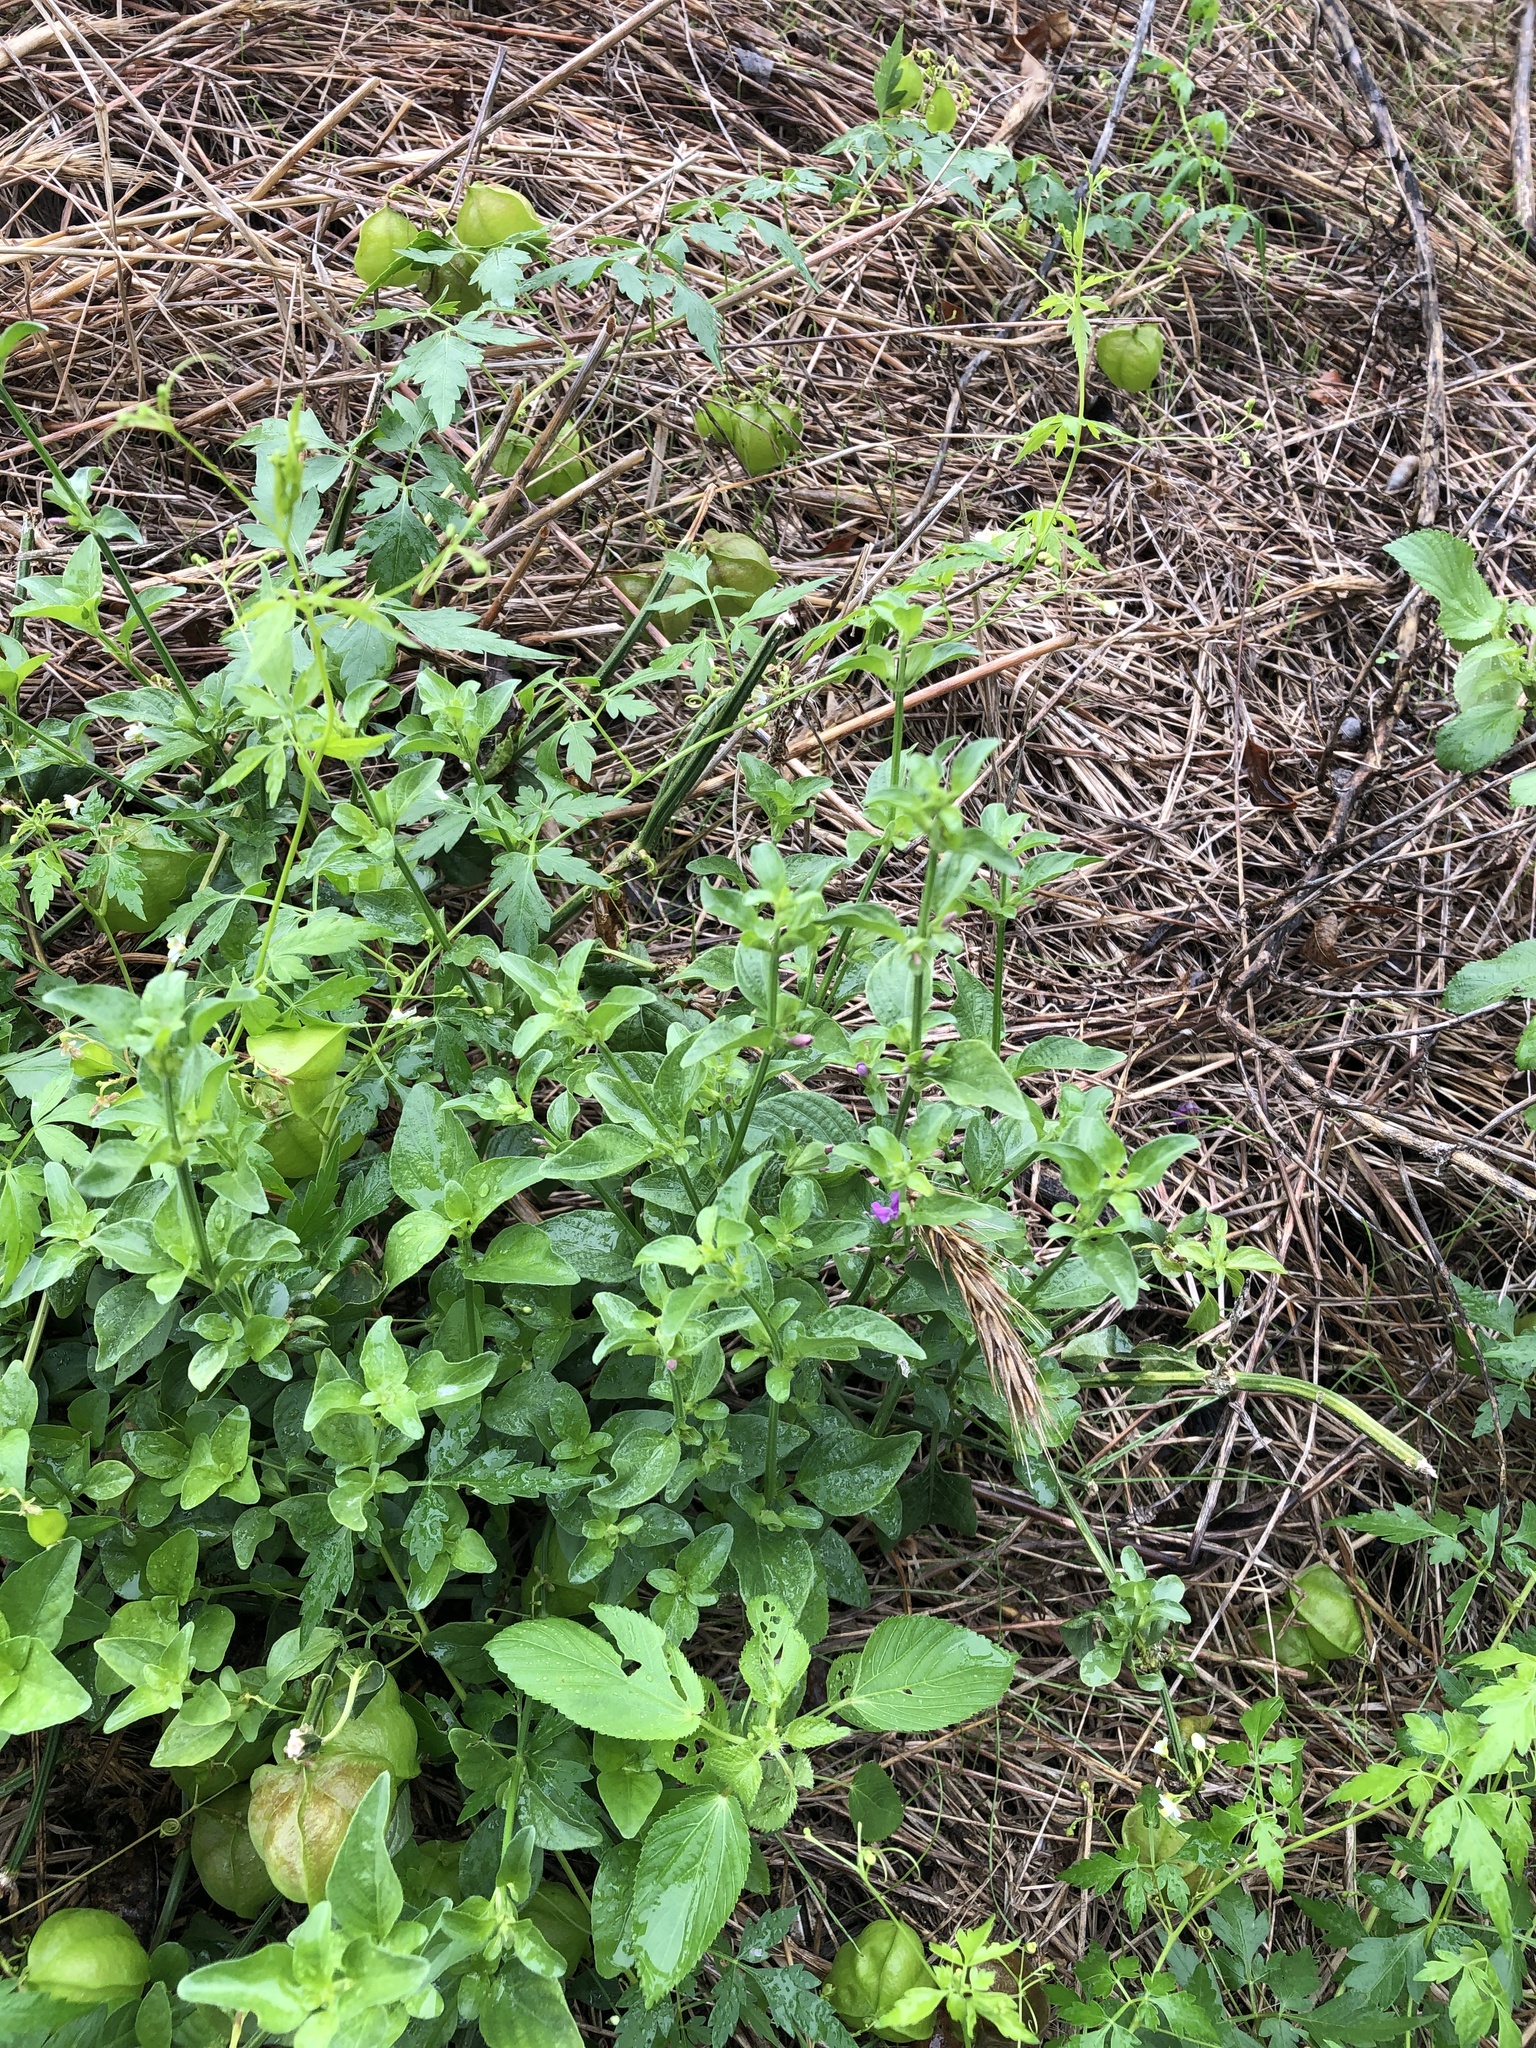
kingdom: Plantae
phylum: Tracheophyta
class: Magnoliopsida
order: Lamiales
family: Acanthaceae
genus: Dicliptera
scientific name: Dicliptera brachiata
